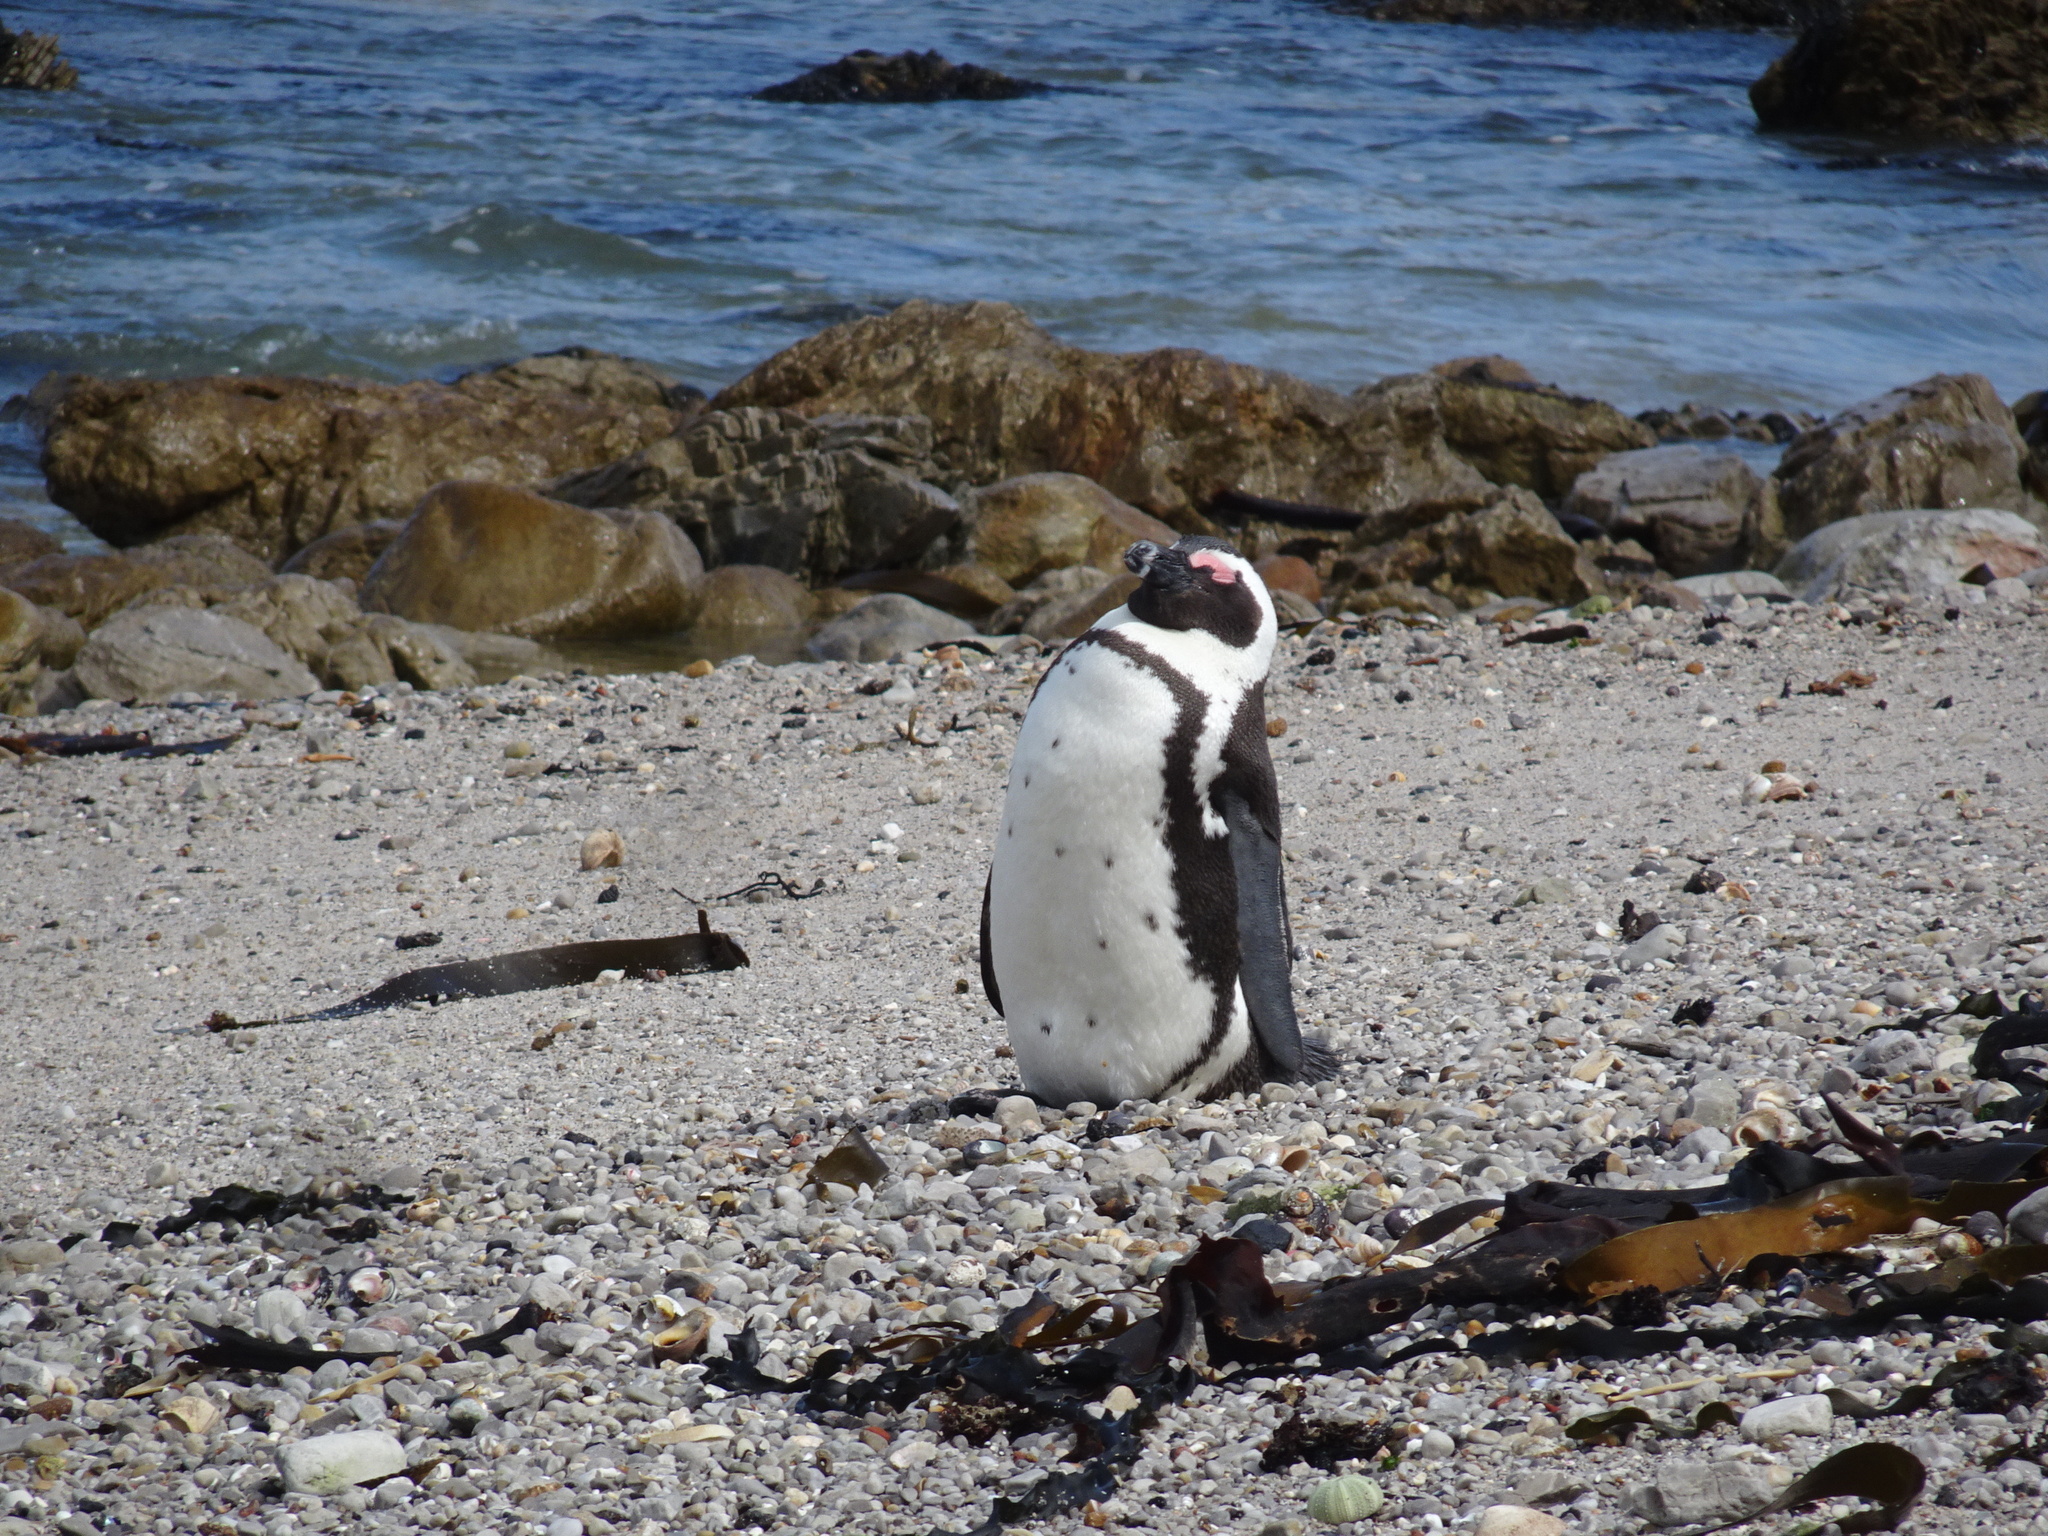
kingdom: Animalia
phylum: Chordata
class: Aves
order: Sphenisciformes
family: Spheniscidae
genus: Spheniscus
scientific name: Spheniscus demersus
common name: African penguin
